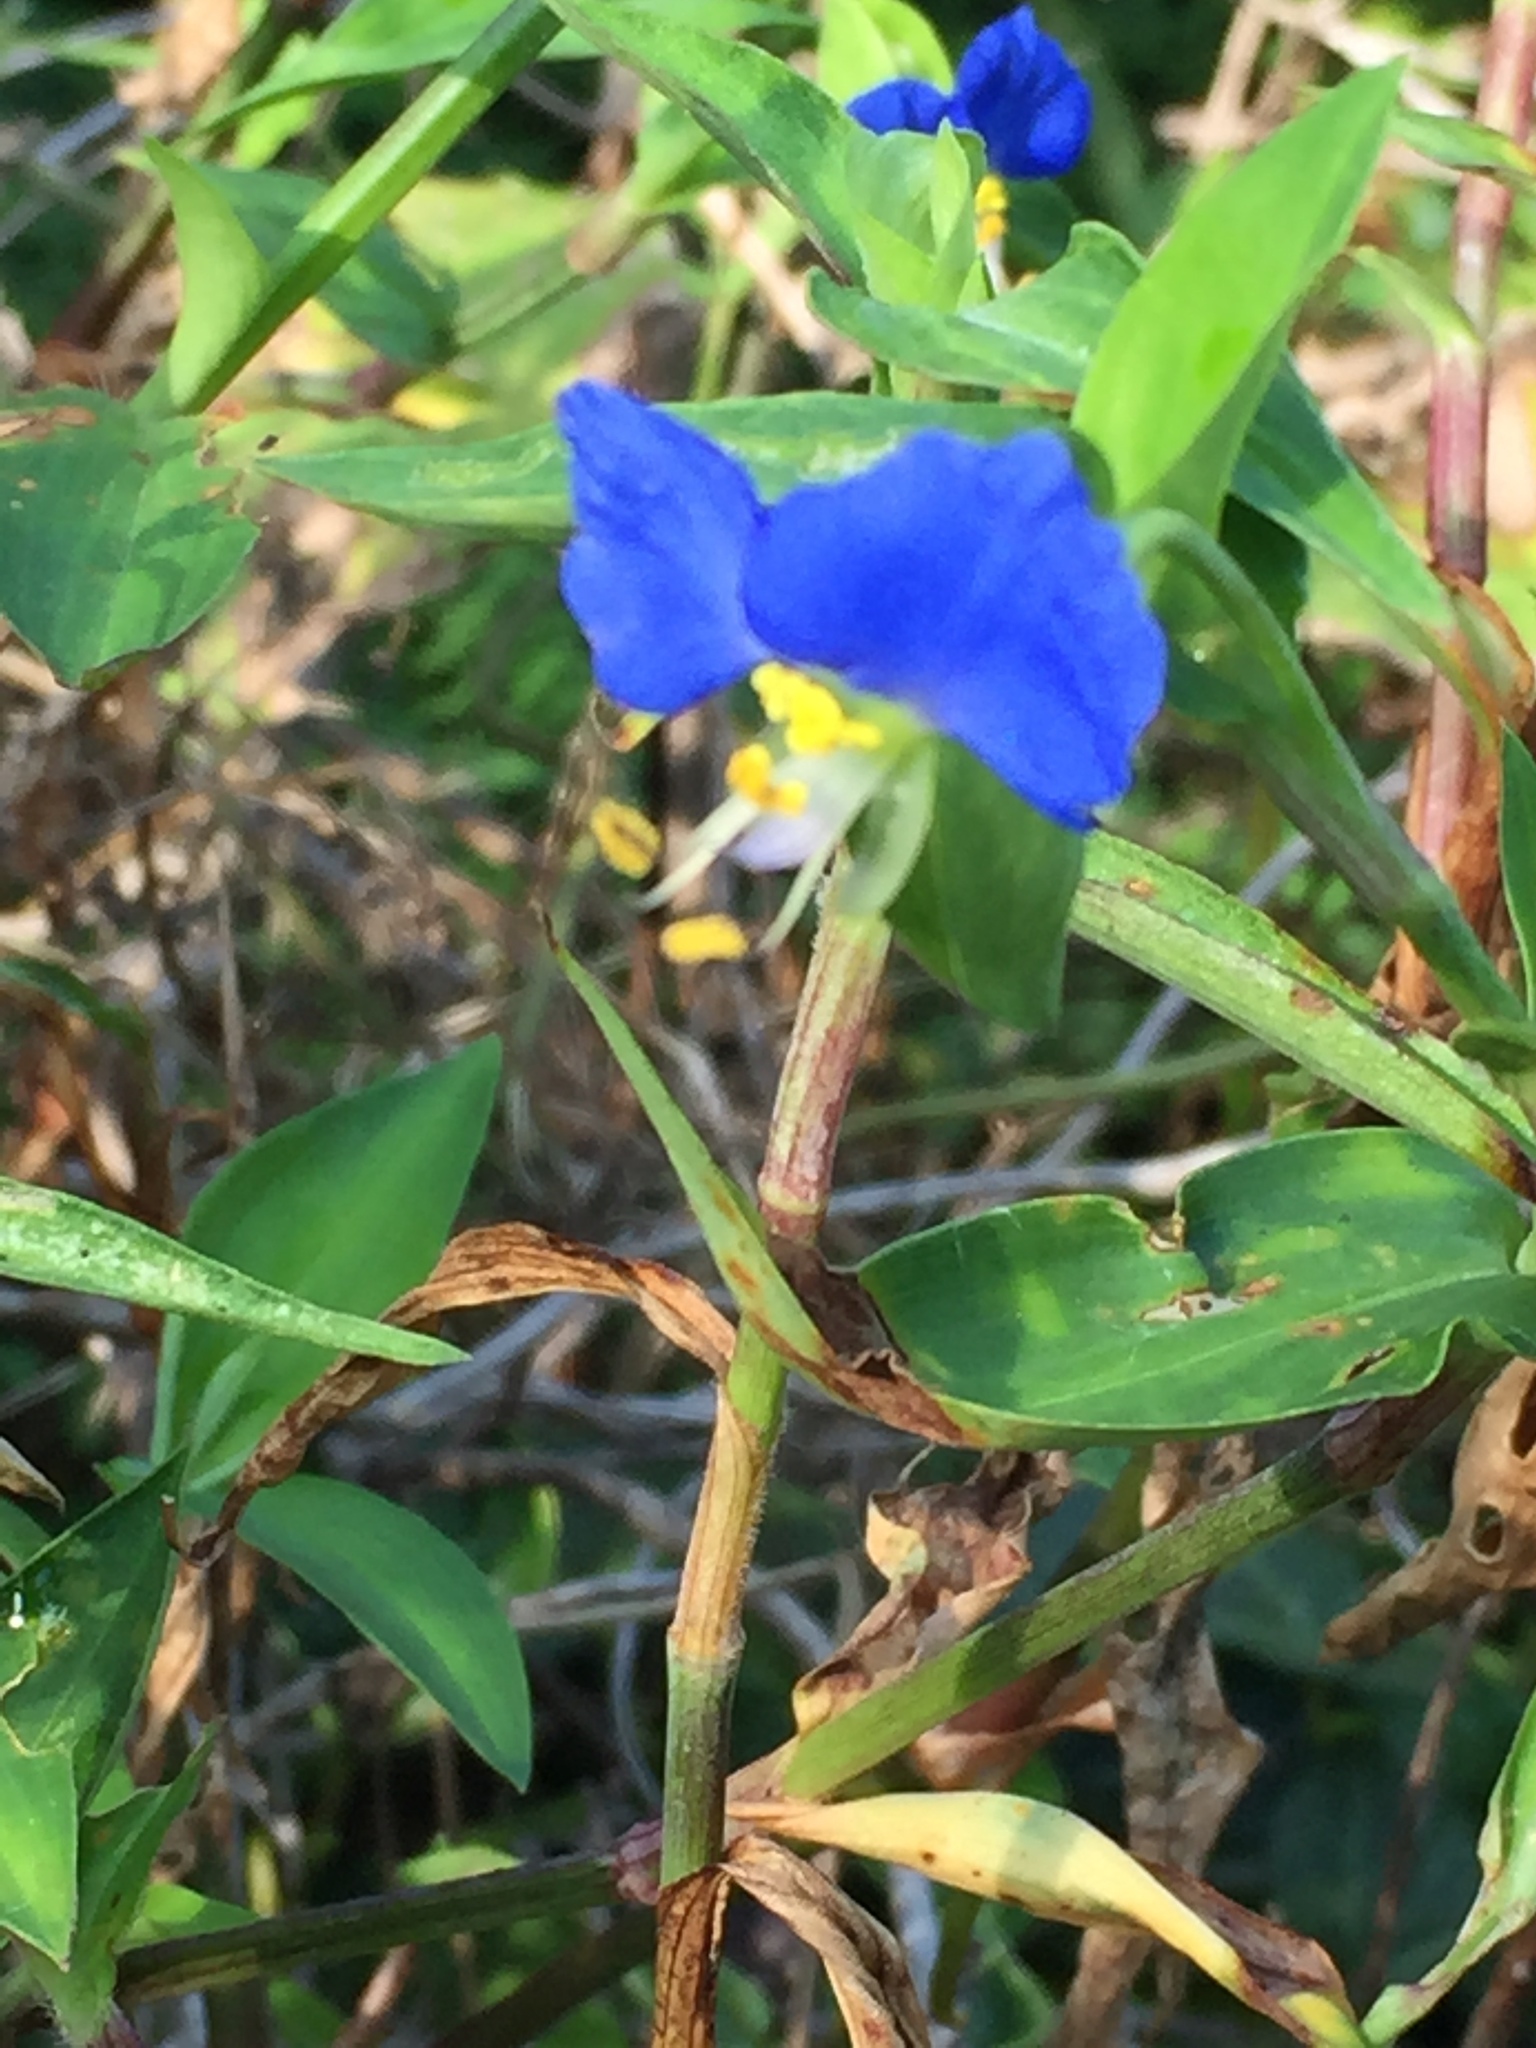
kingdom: Plantae
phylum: Tracheophyta
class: Liliopsida
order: Commelinales
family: Commelinaceae
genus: Commelina
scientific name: Commelina communis
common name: Asiatic dayflower
